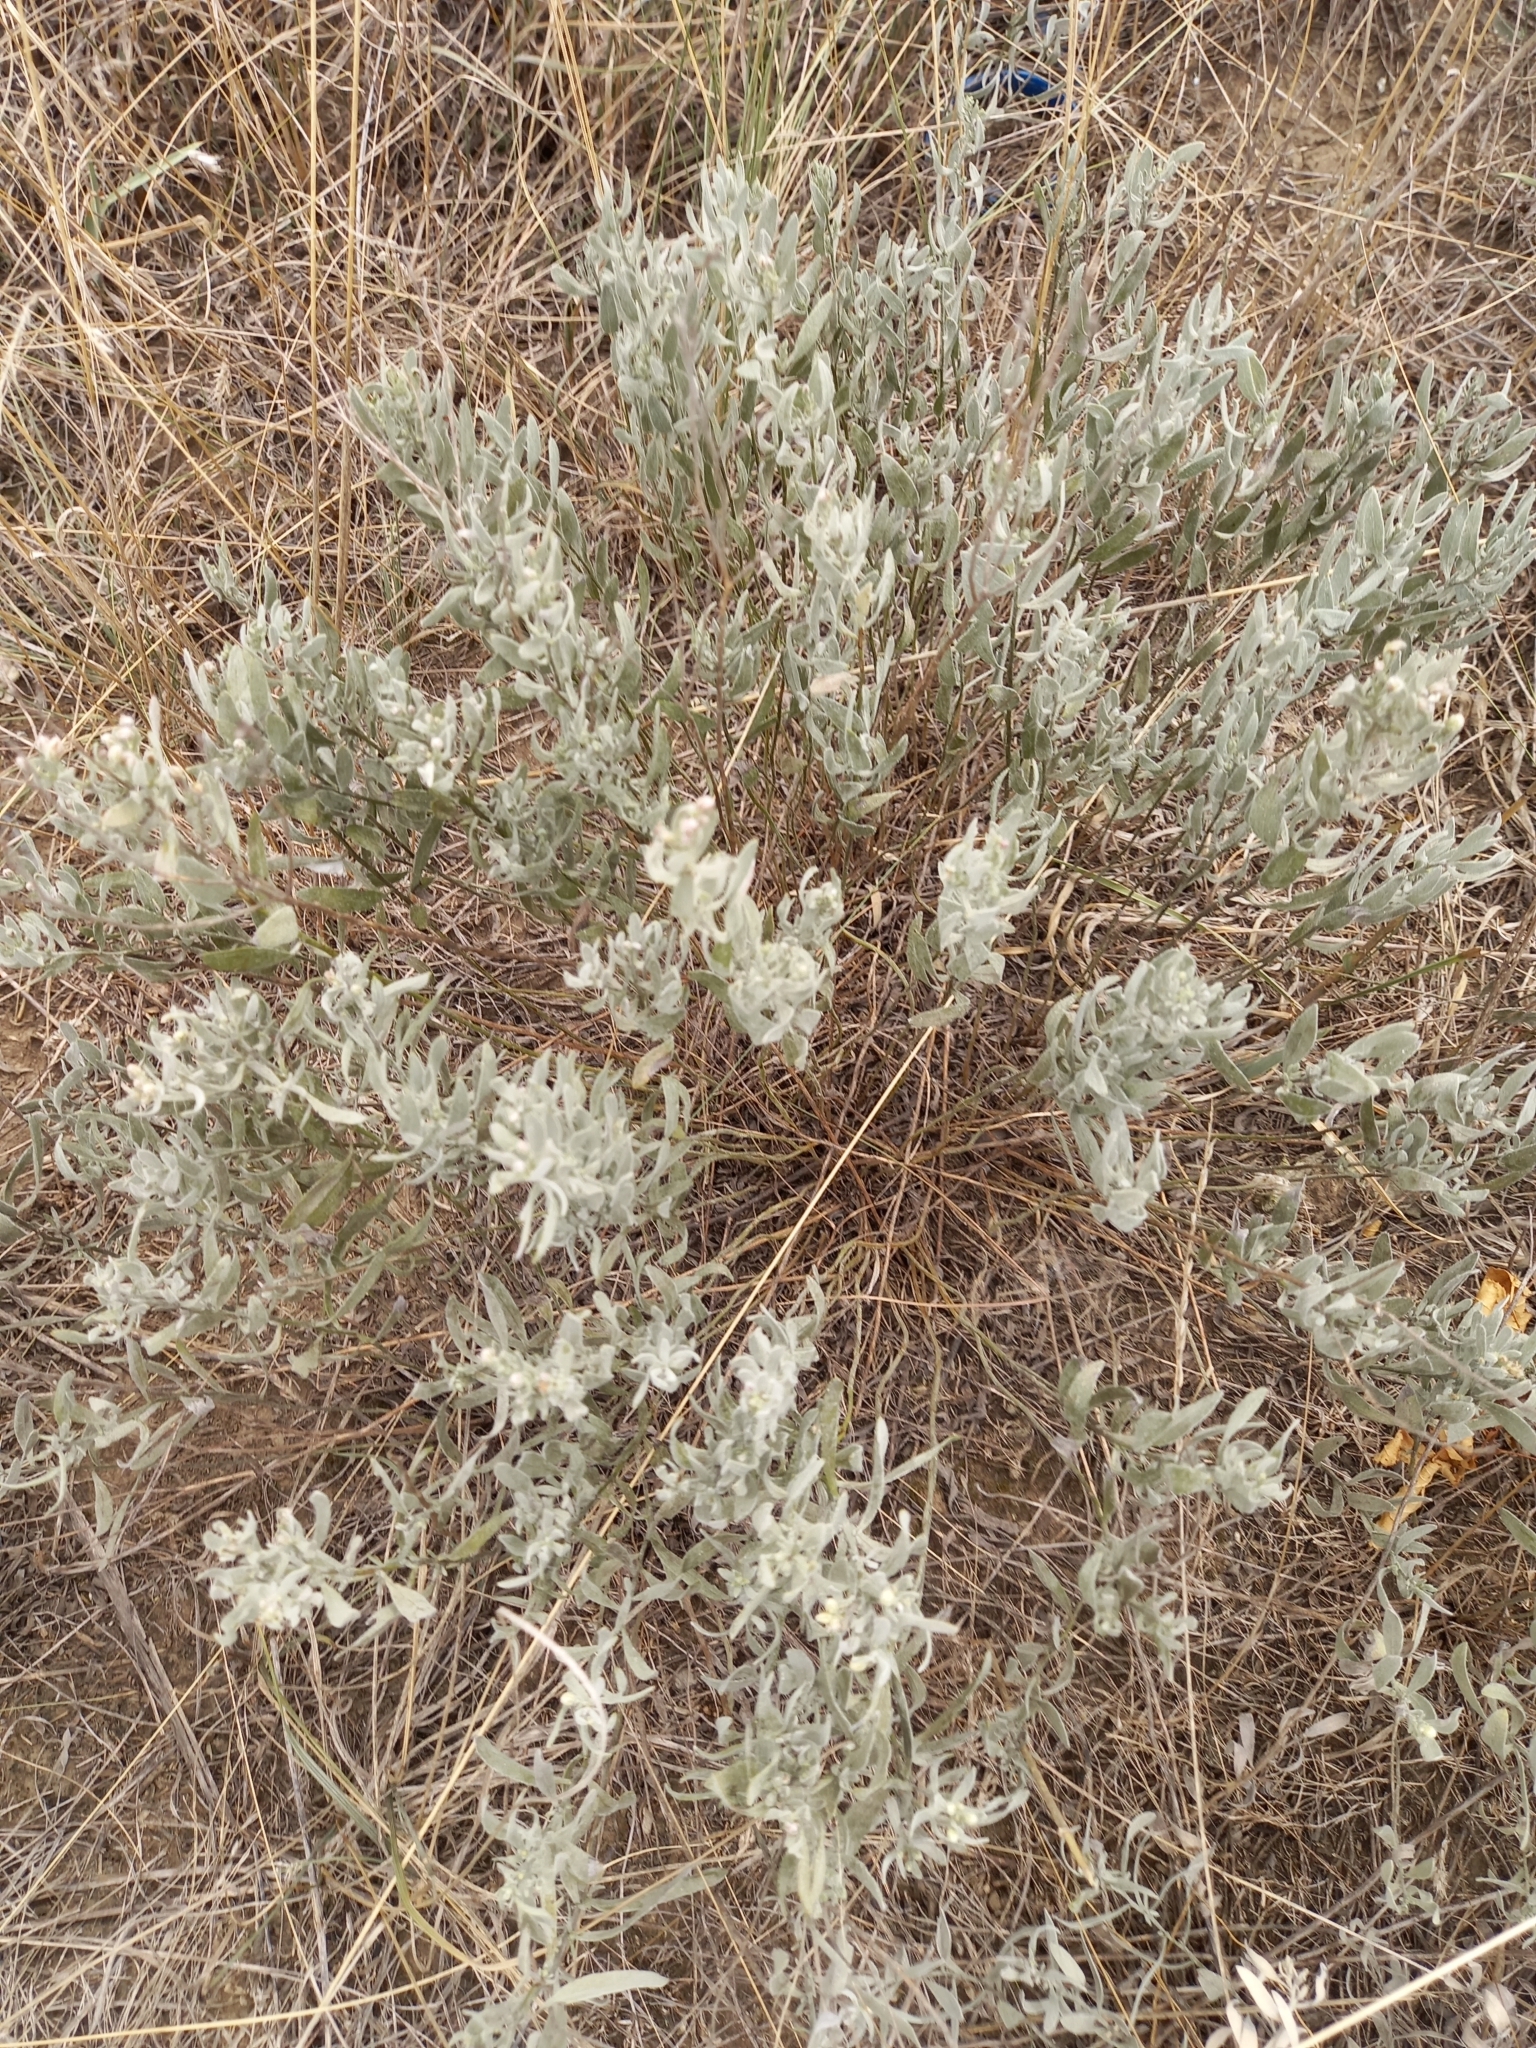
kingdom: Plantae
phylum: Tracheophyta
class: Magnoliopsida
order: Asterales
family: Asteraceae
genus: Galatella
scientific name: Galatella villosa
